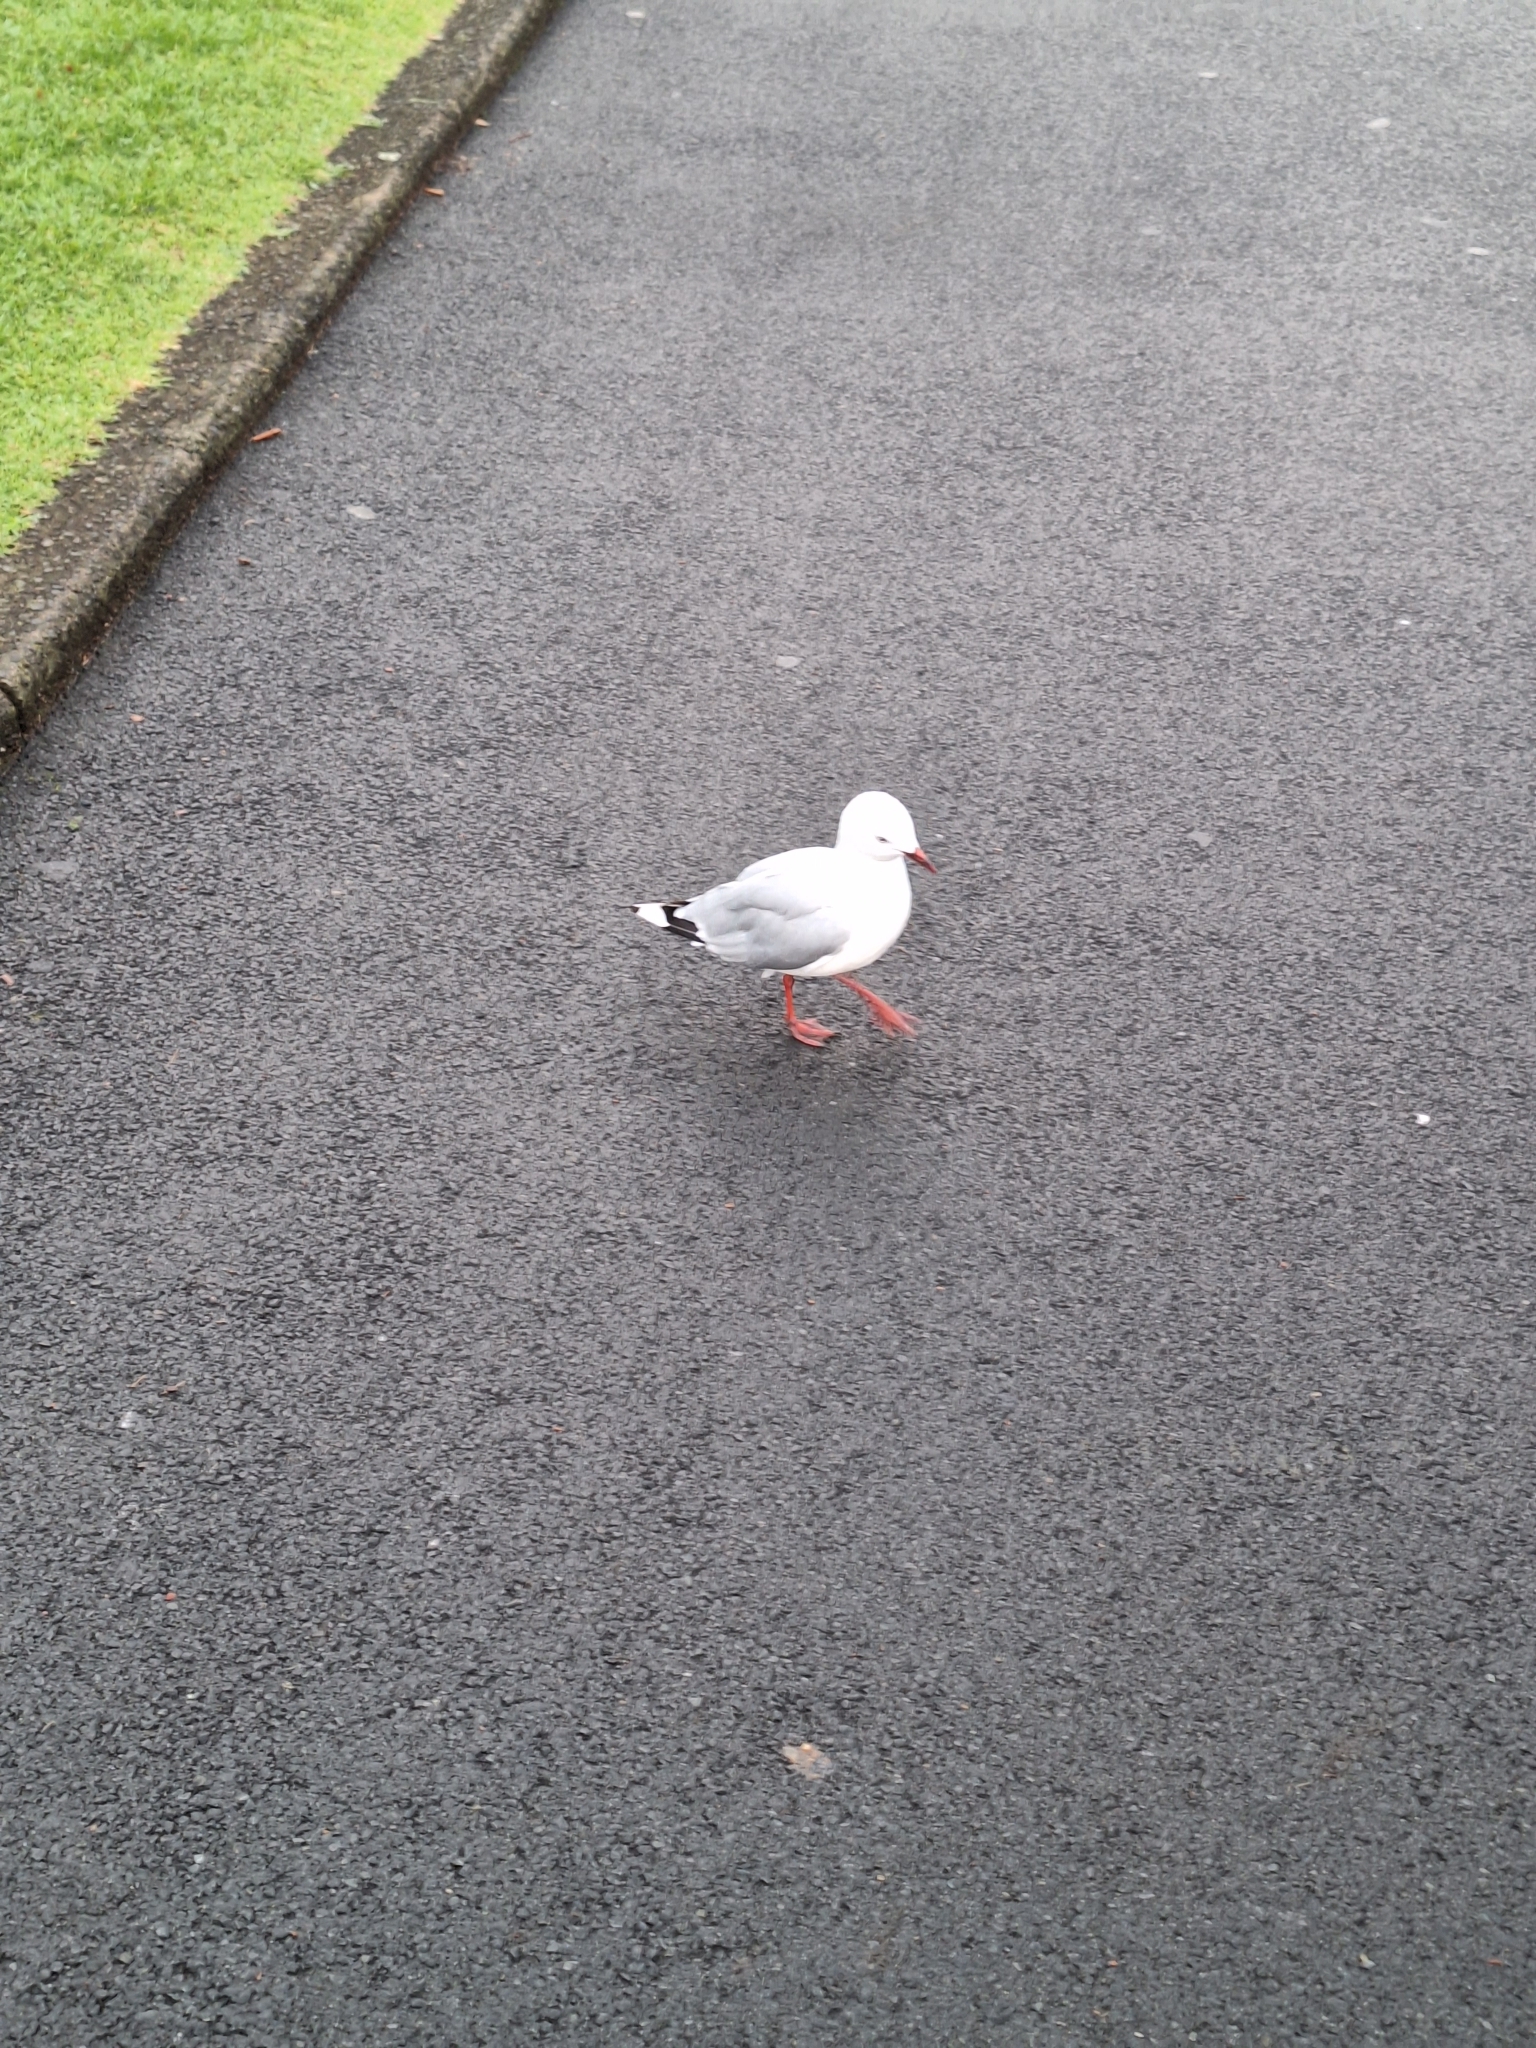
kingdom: Animalia
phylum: Chordata
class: Aves
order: Charadriiformes
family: Laridae
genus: Chroicocephalus
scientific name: Chroicocephalus novaehollandiae
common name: Silver gull
